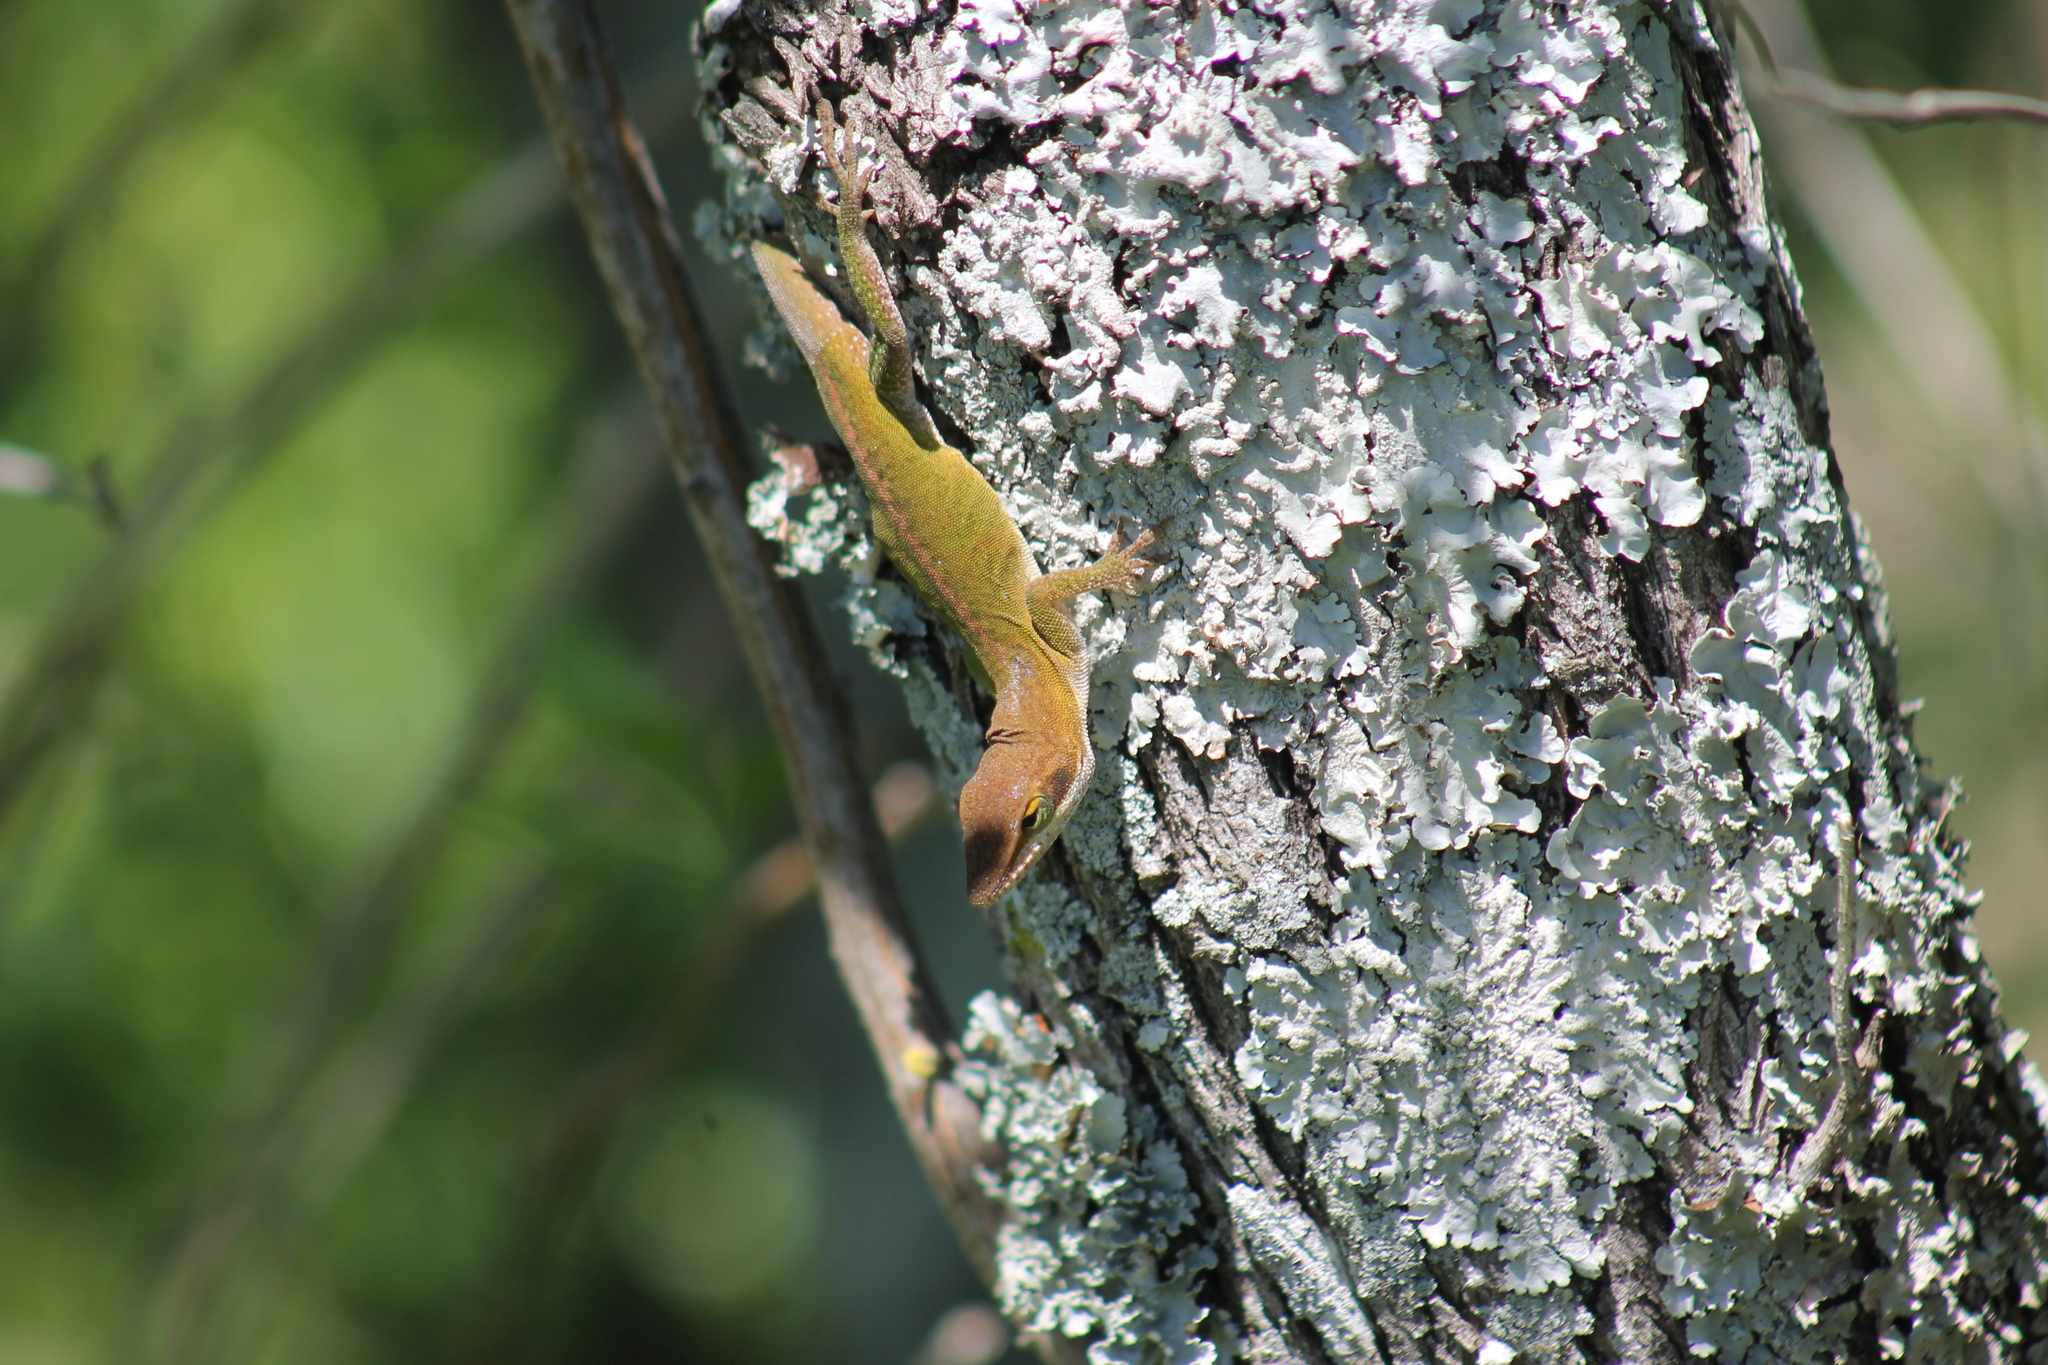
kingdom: Animalia
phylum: Chordata
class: Squamata
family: Dactyloidae
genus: Anolis
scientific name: Anolis carolinensis
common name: Green anole
